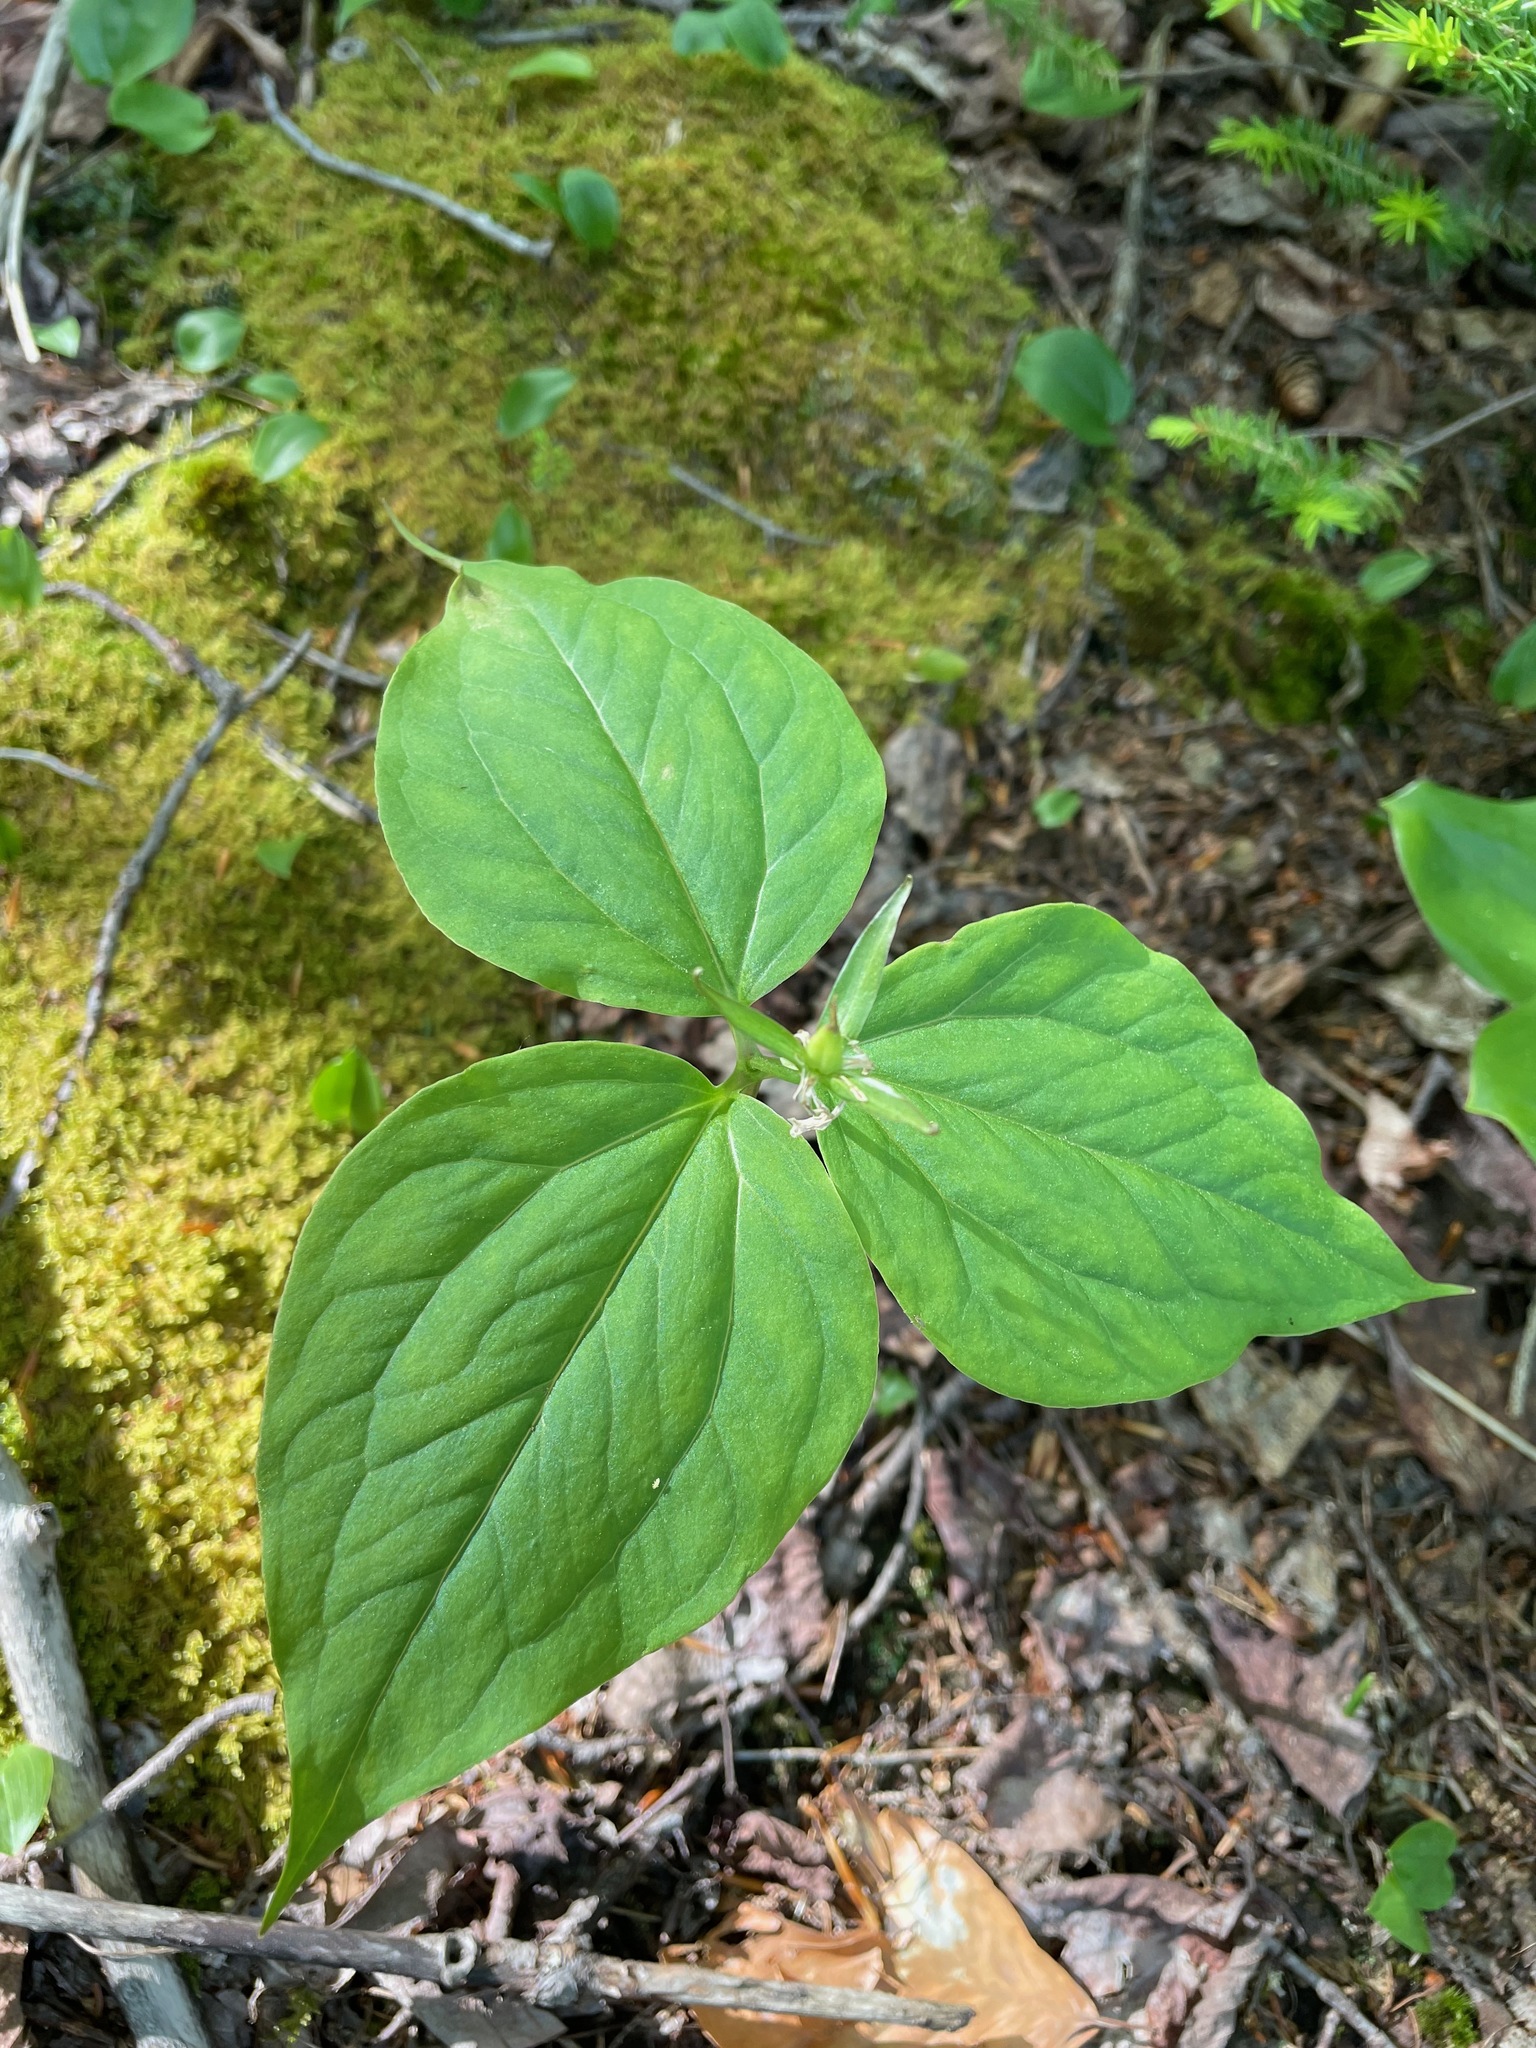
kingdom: Plantae
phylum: Tracheophyta
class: Liliopsida
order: Liliales
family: Melanthiaceae
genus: Trillium
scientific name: Trillium undulatum
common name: Paint trillium
